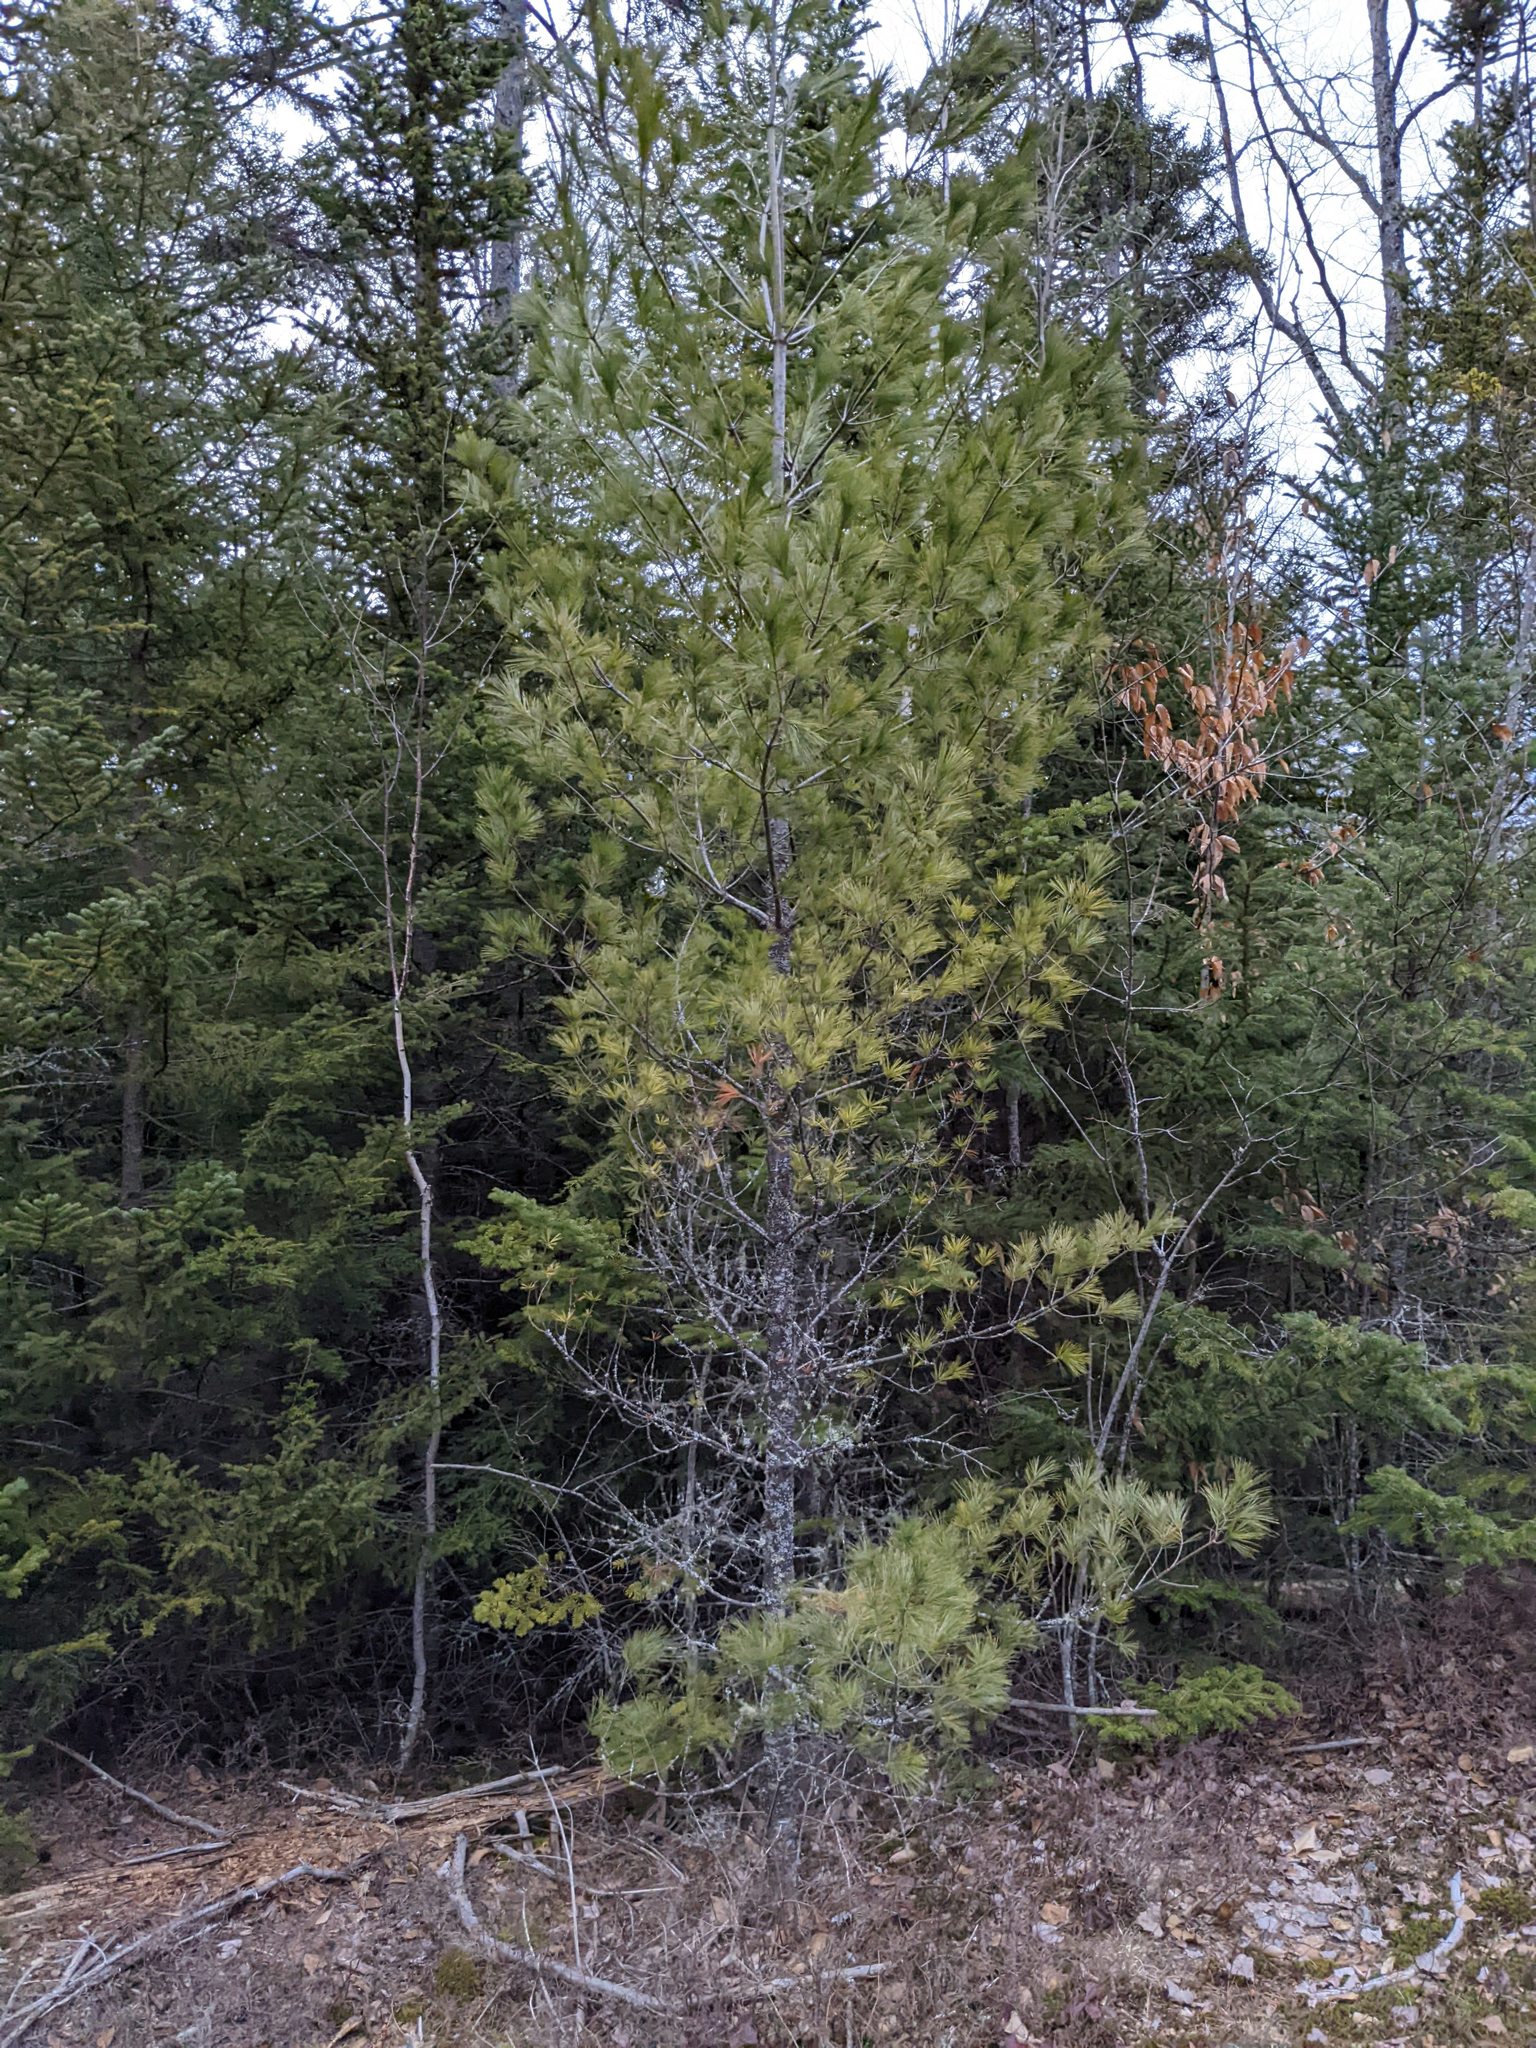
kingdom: Plantae
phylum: Tracheophyta
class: Pinopsida
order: Pinales
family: Pinaceae
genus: Pinus
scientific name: Pinus strobus
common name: Weymouth pine
